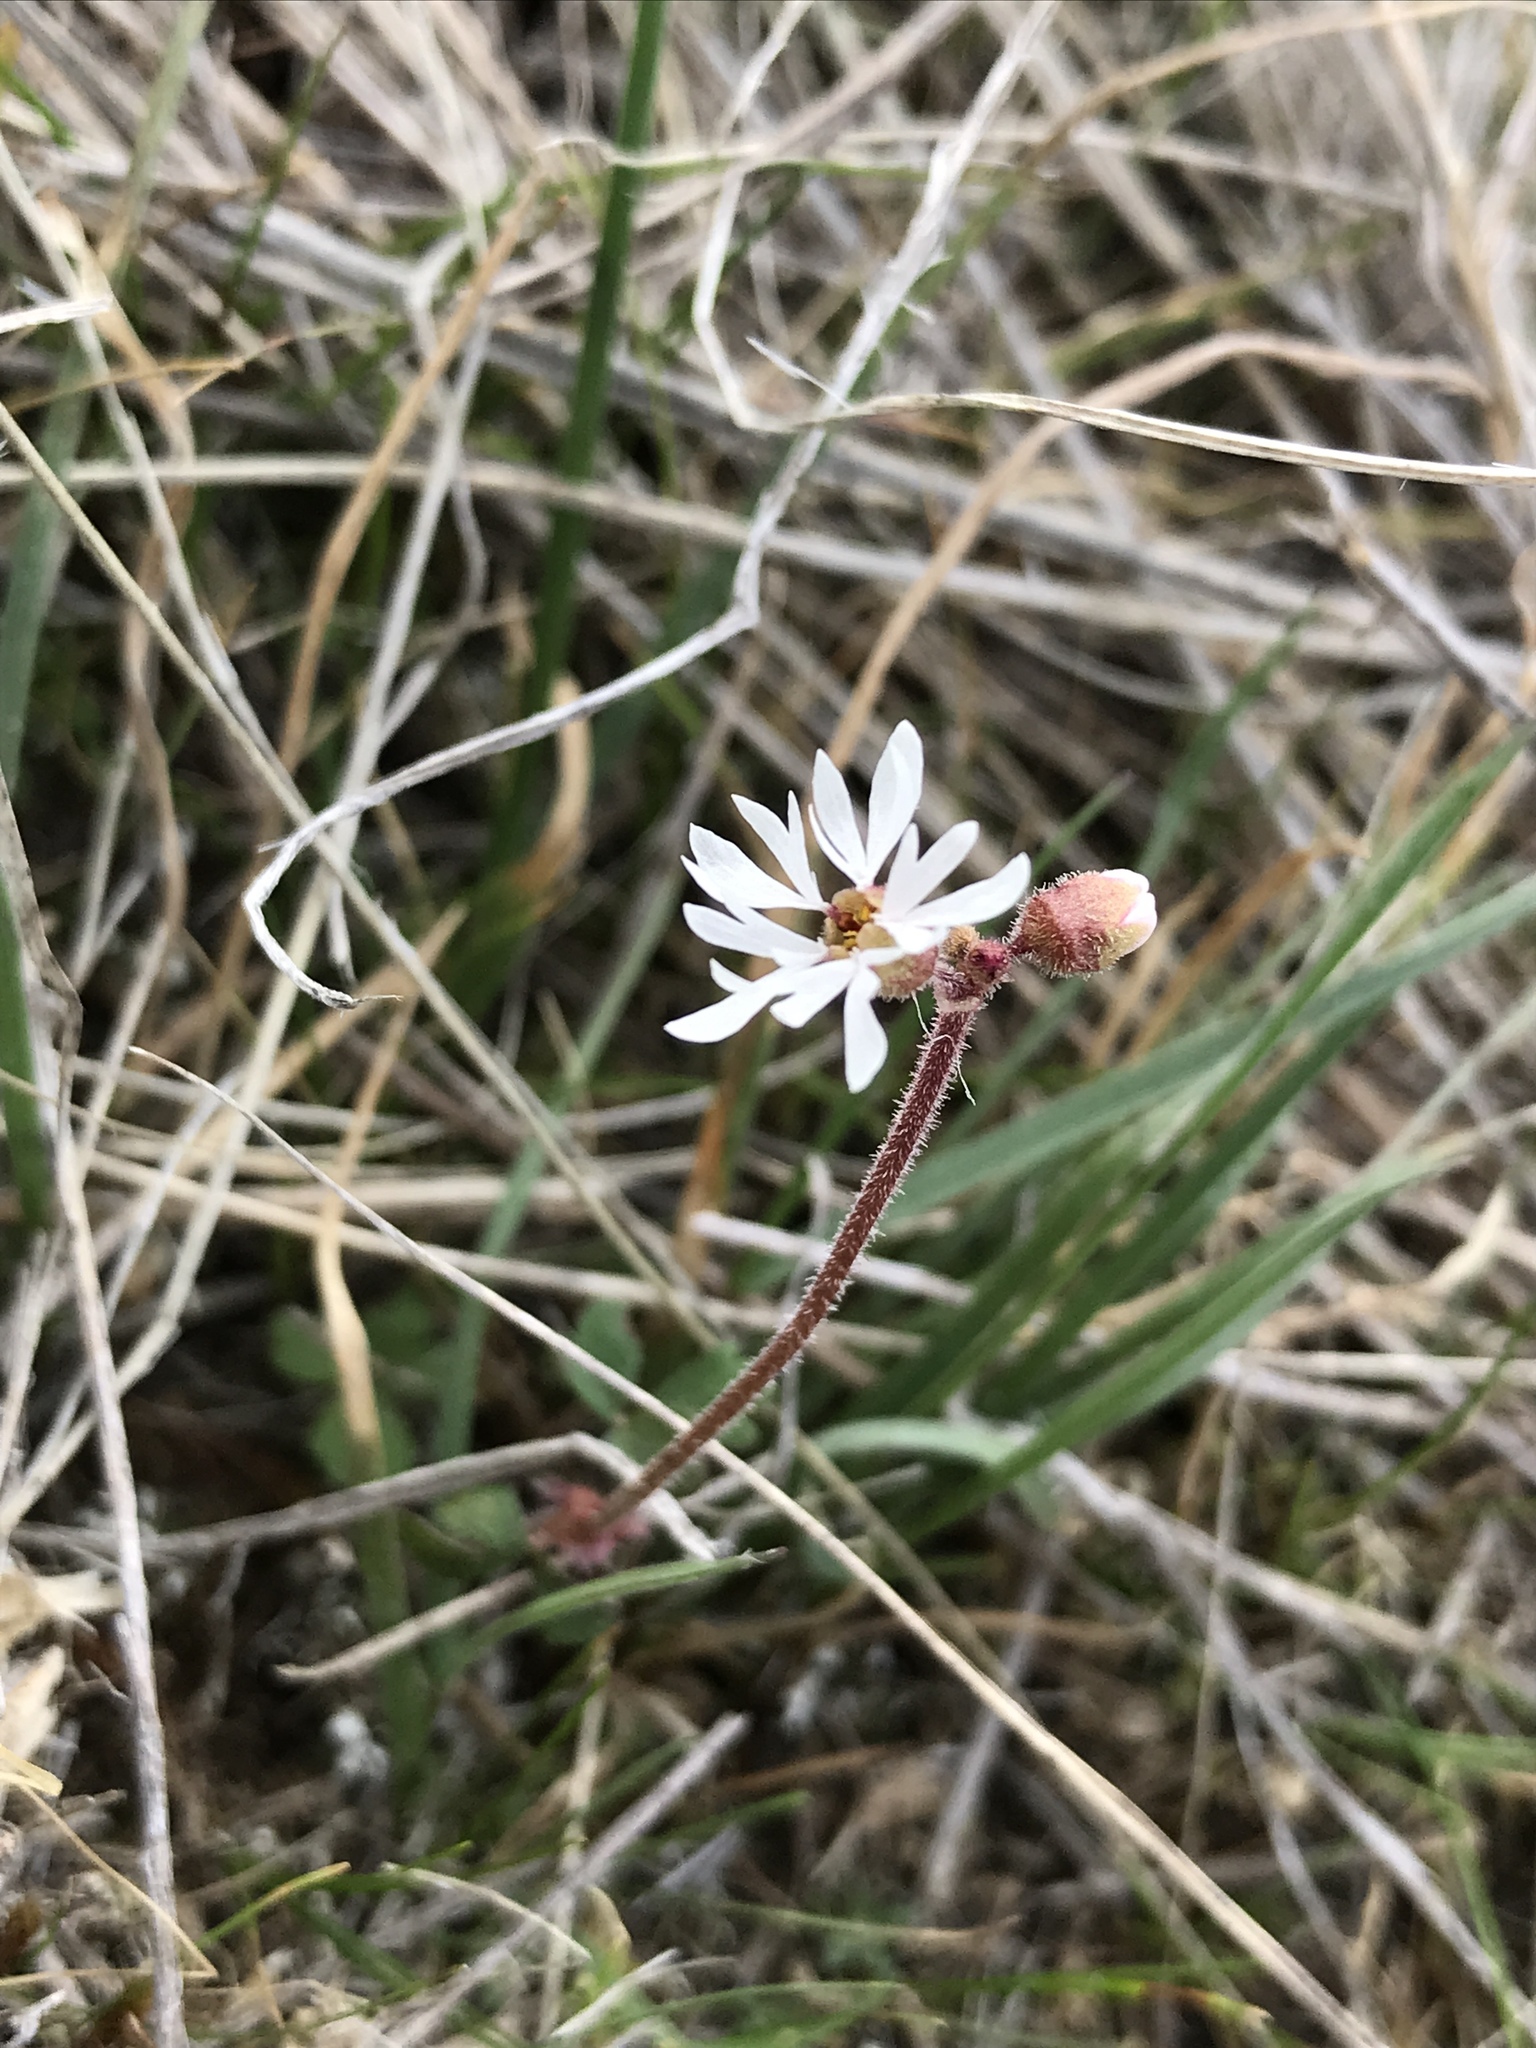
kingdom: Plantae
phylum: Tracheophyta
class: Magnoliopsida
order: Saxifragales
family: Saxifragaceae
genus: Lithophragma
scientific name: Lithophragma parviflorum
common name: Small-flowered fringe-cup
